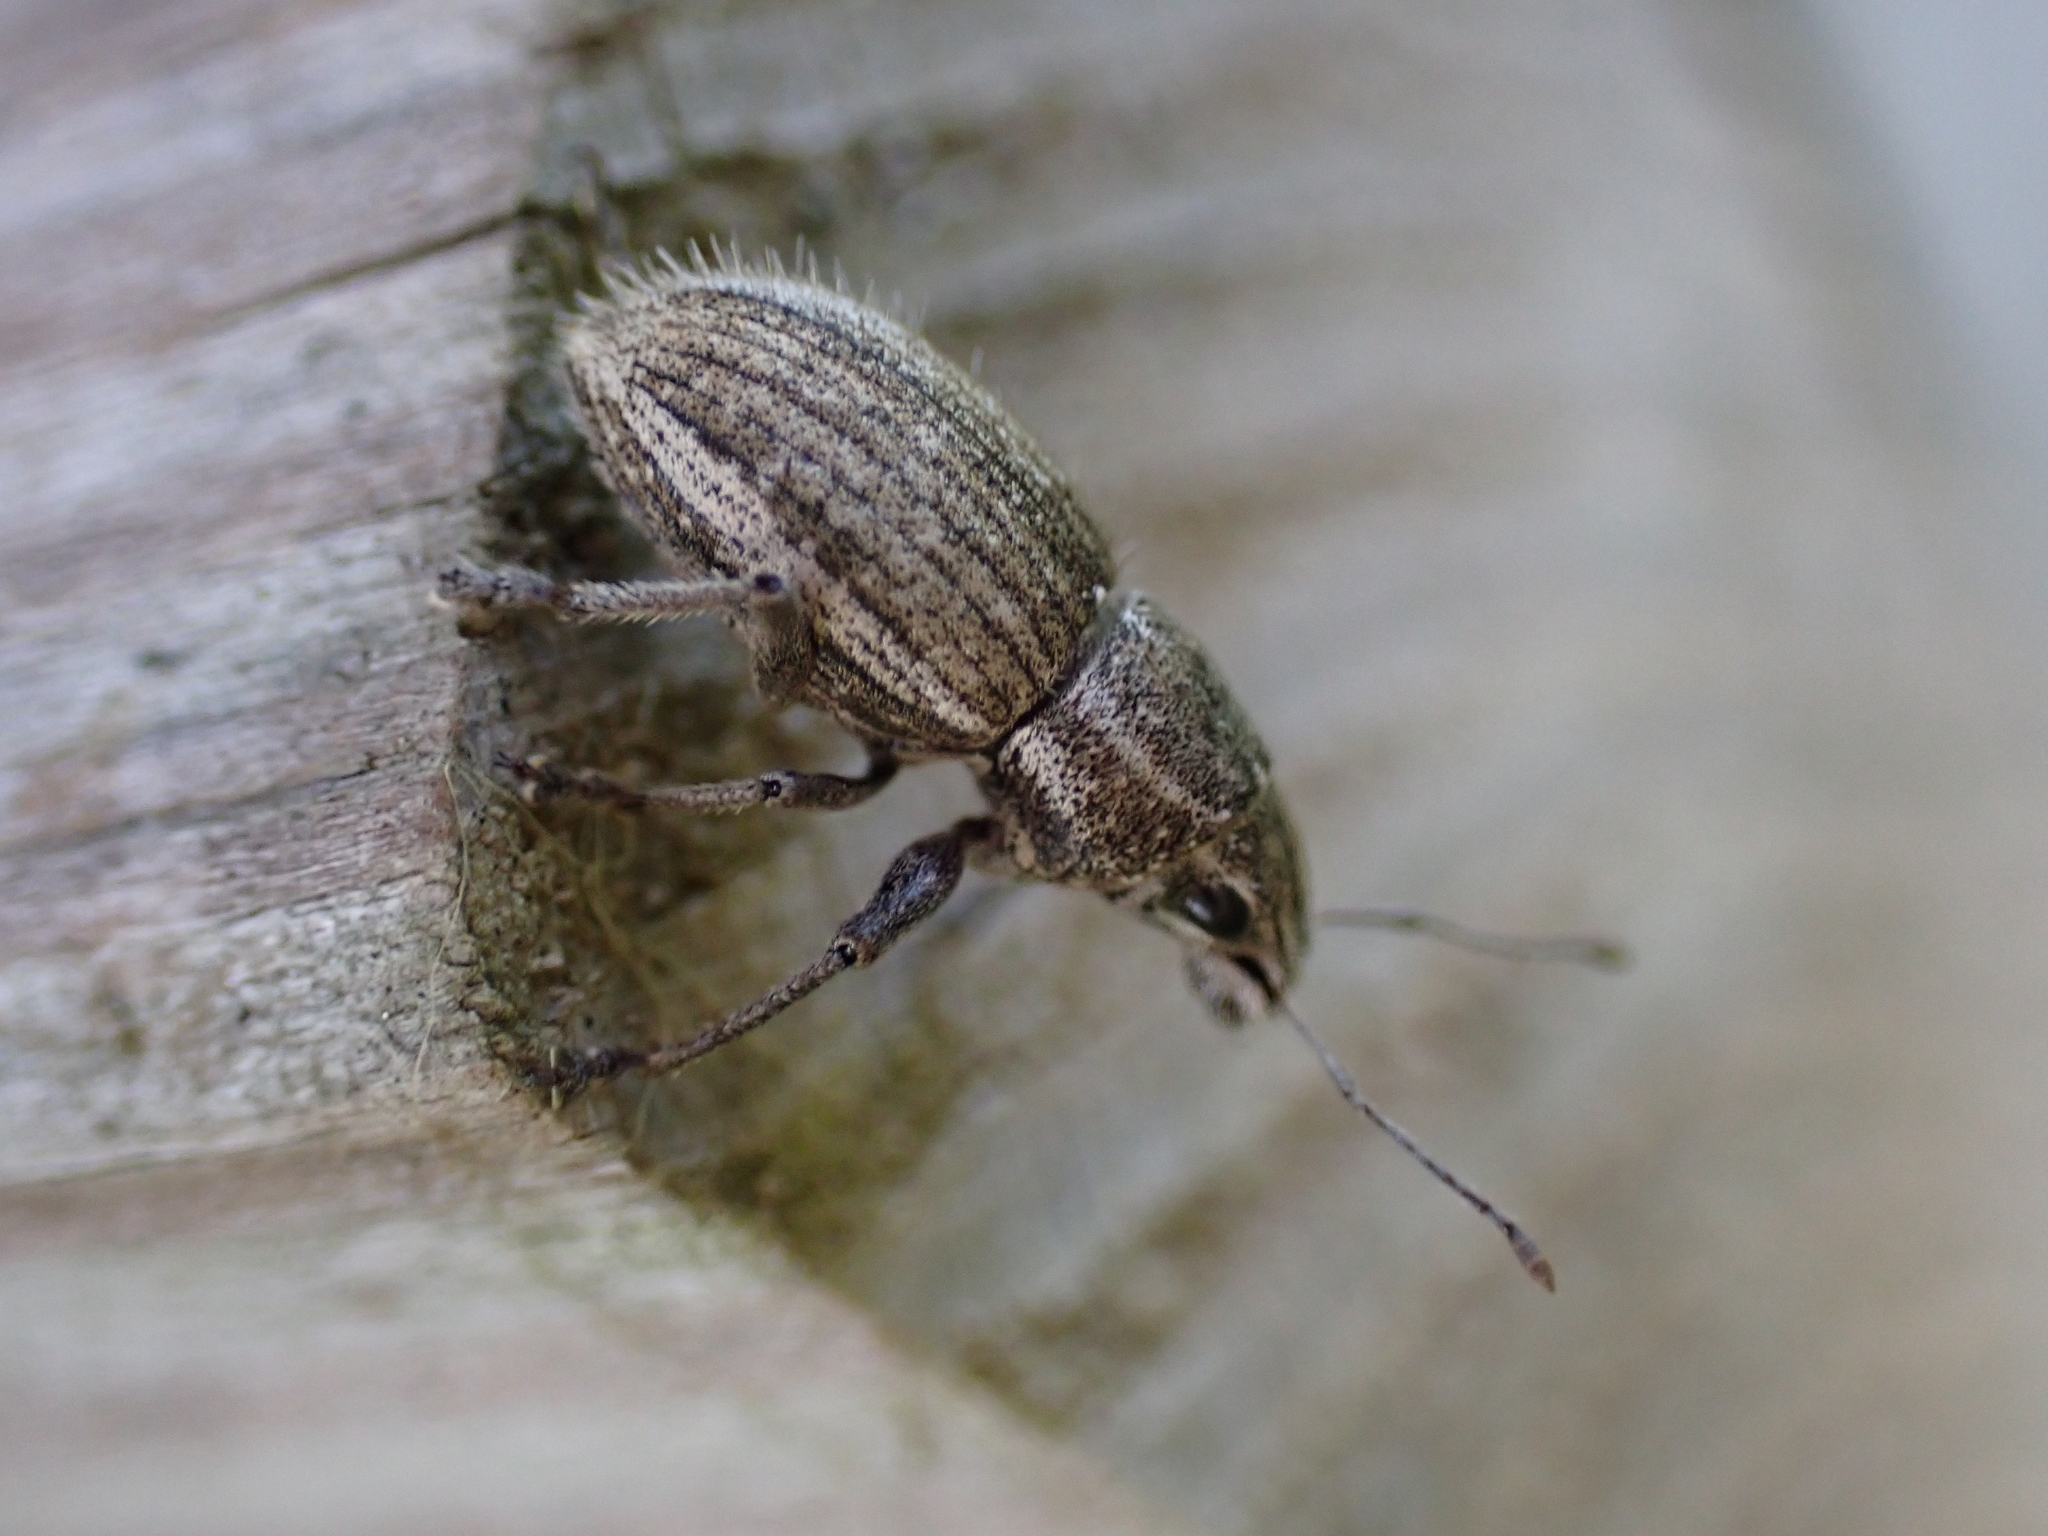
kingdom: Animalia
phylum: Arthropoda
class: Insecta
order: Coleoptera
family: Curculionidae
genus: Naupactus
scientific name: Naupactus leucoloma
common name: Whitefringed beetle
